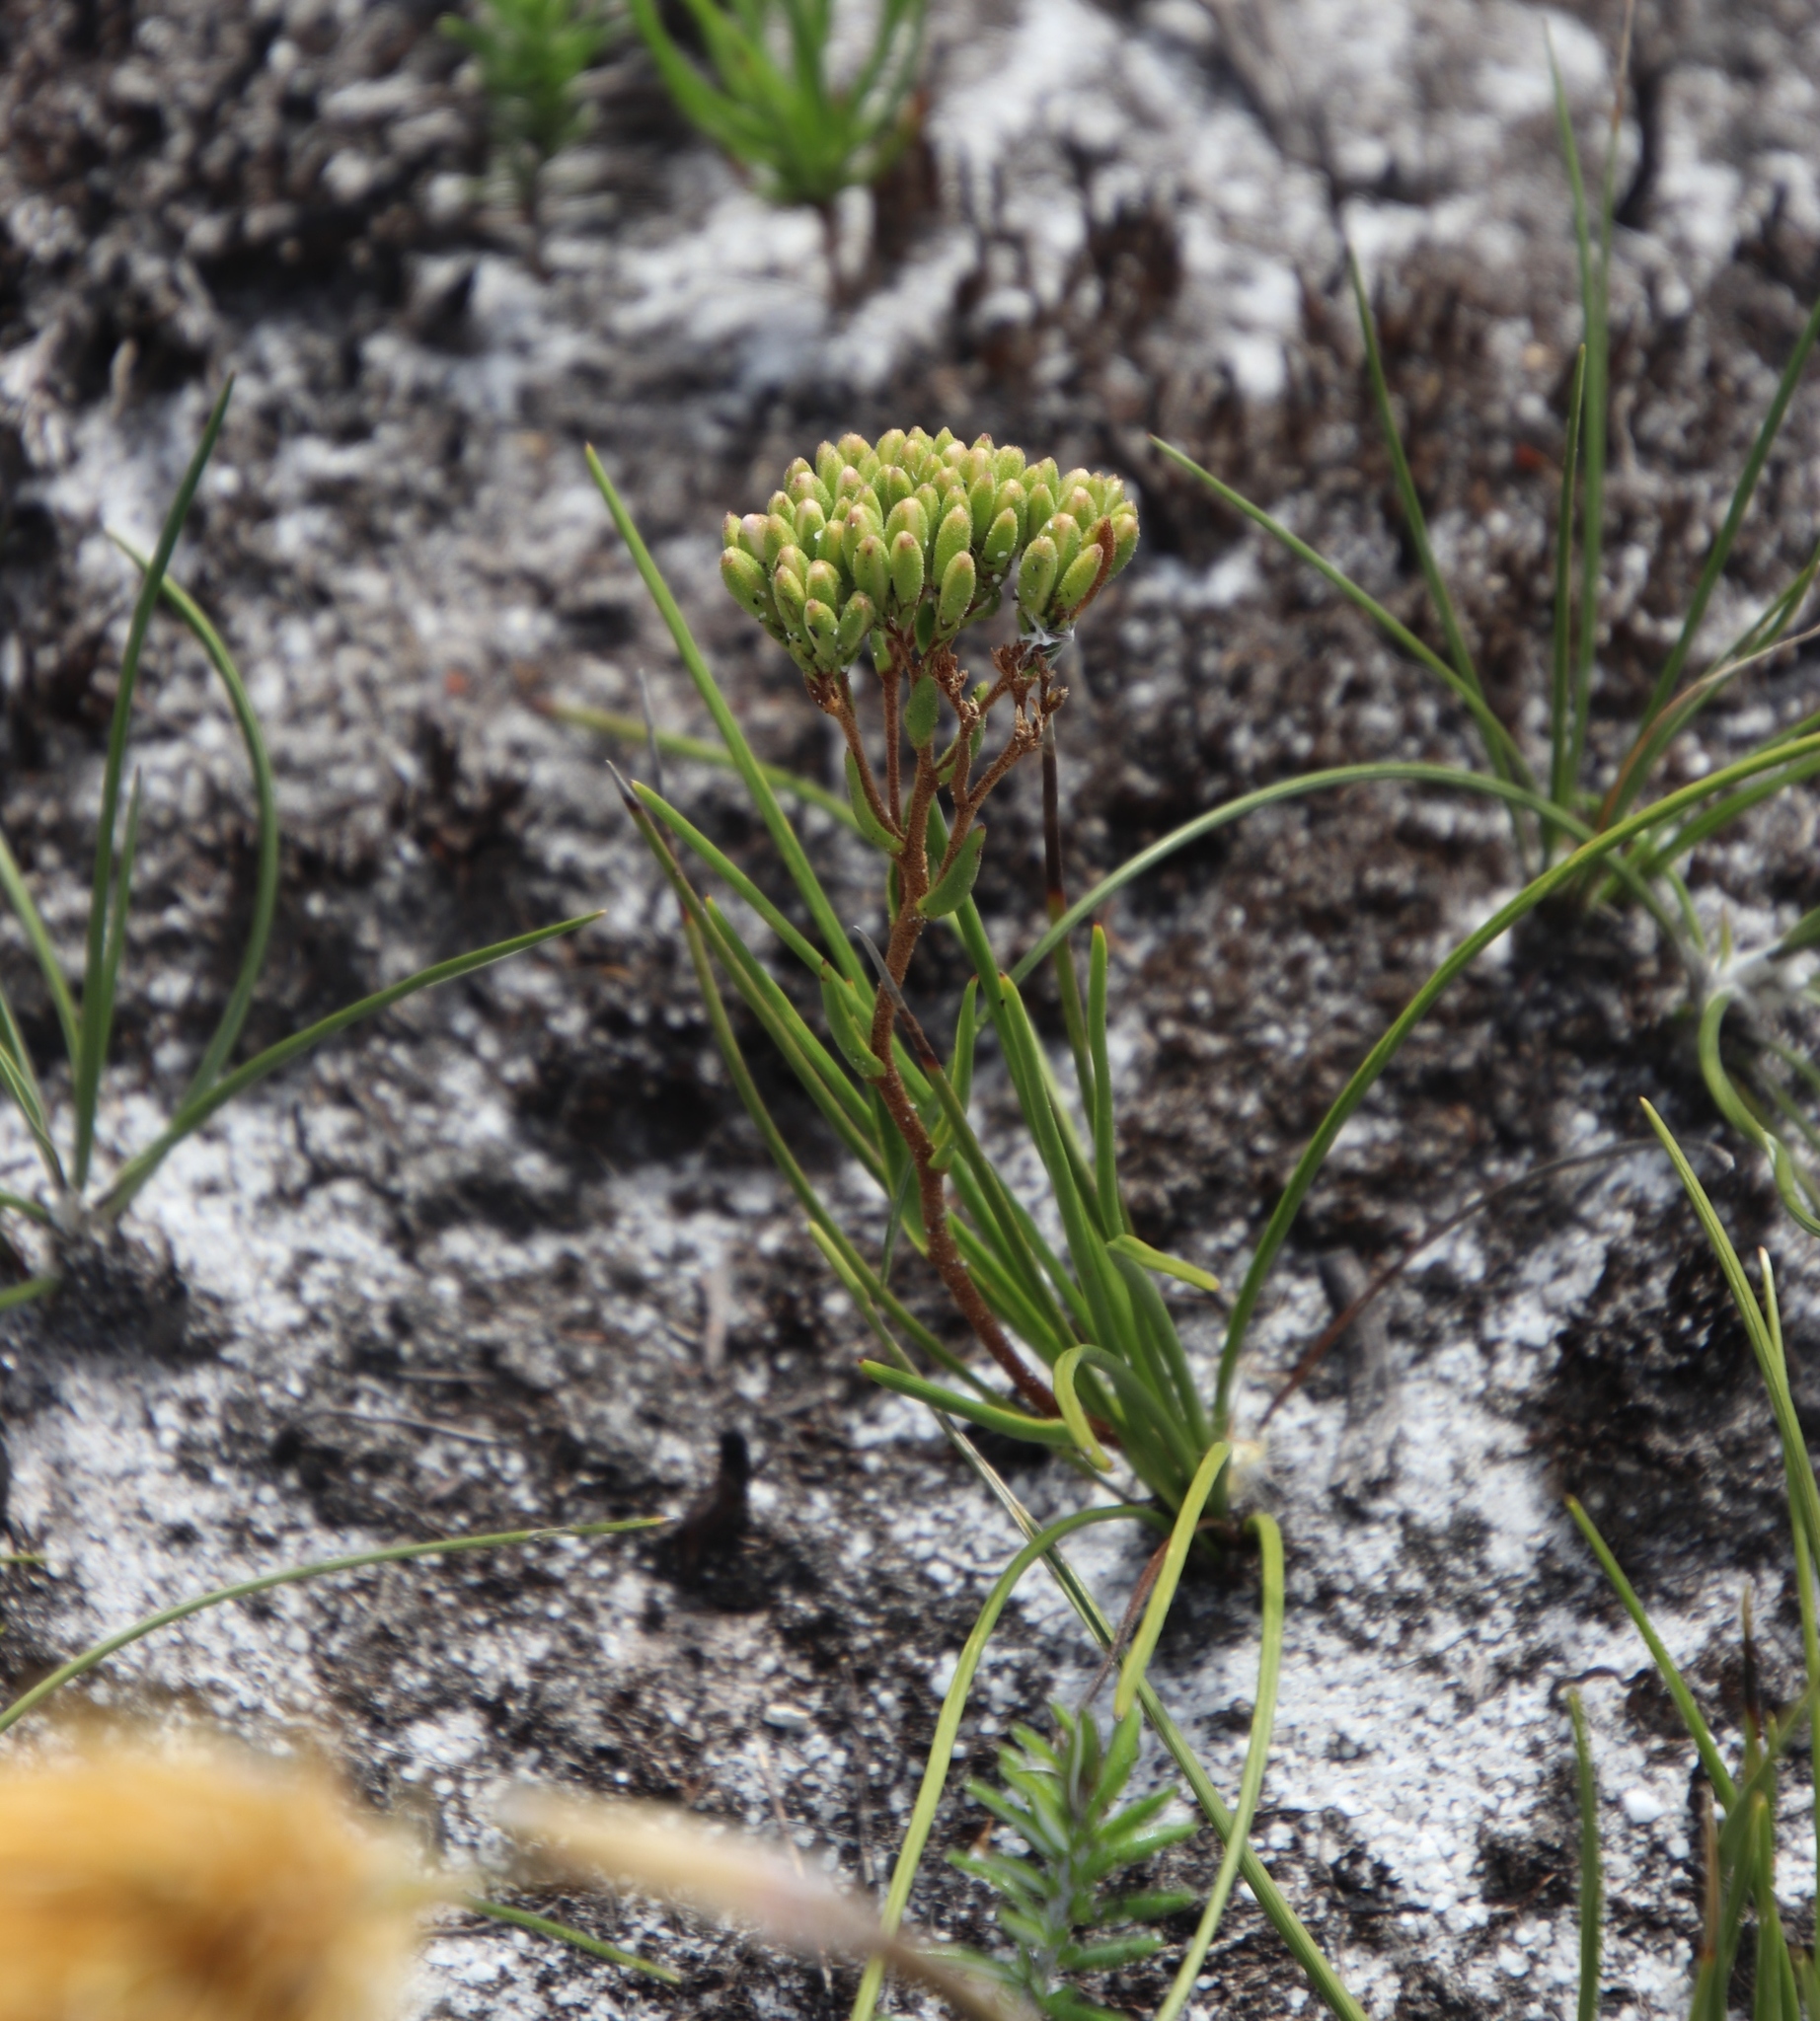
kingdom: Plantae
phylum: Tracheophyta
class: Magnoliopsida
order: Asterales
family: Asteraceae
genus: Corymbium
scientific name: Corymbium africanum
